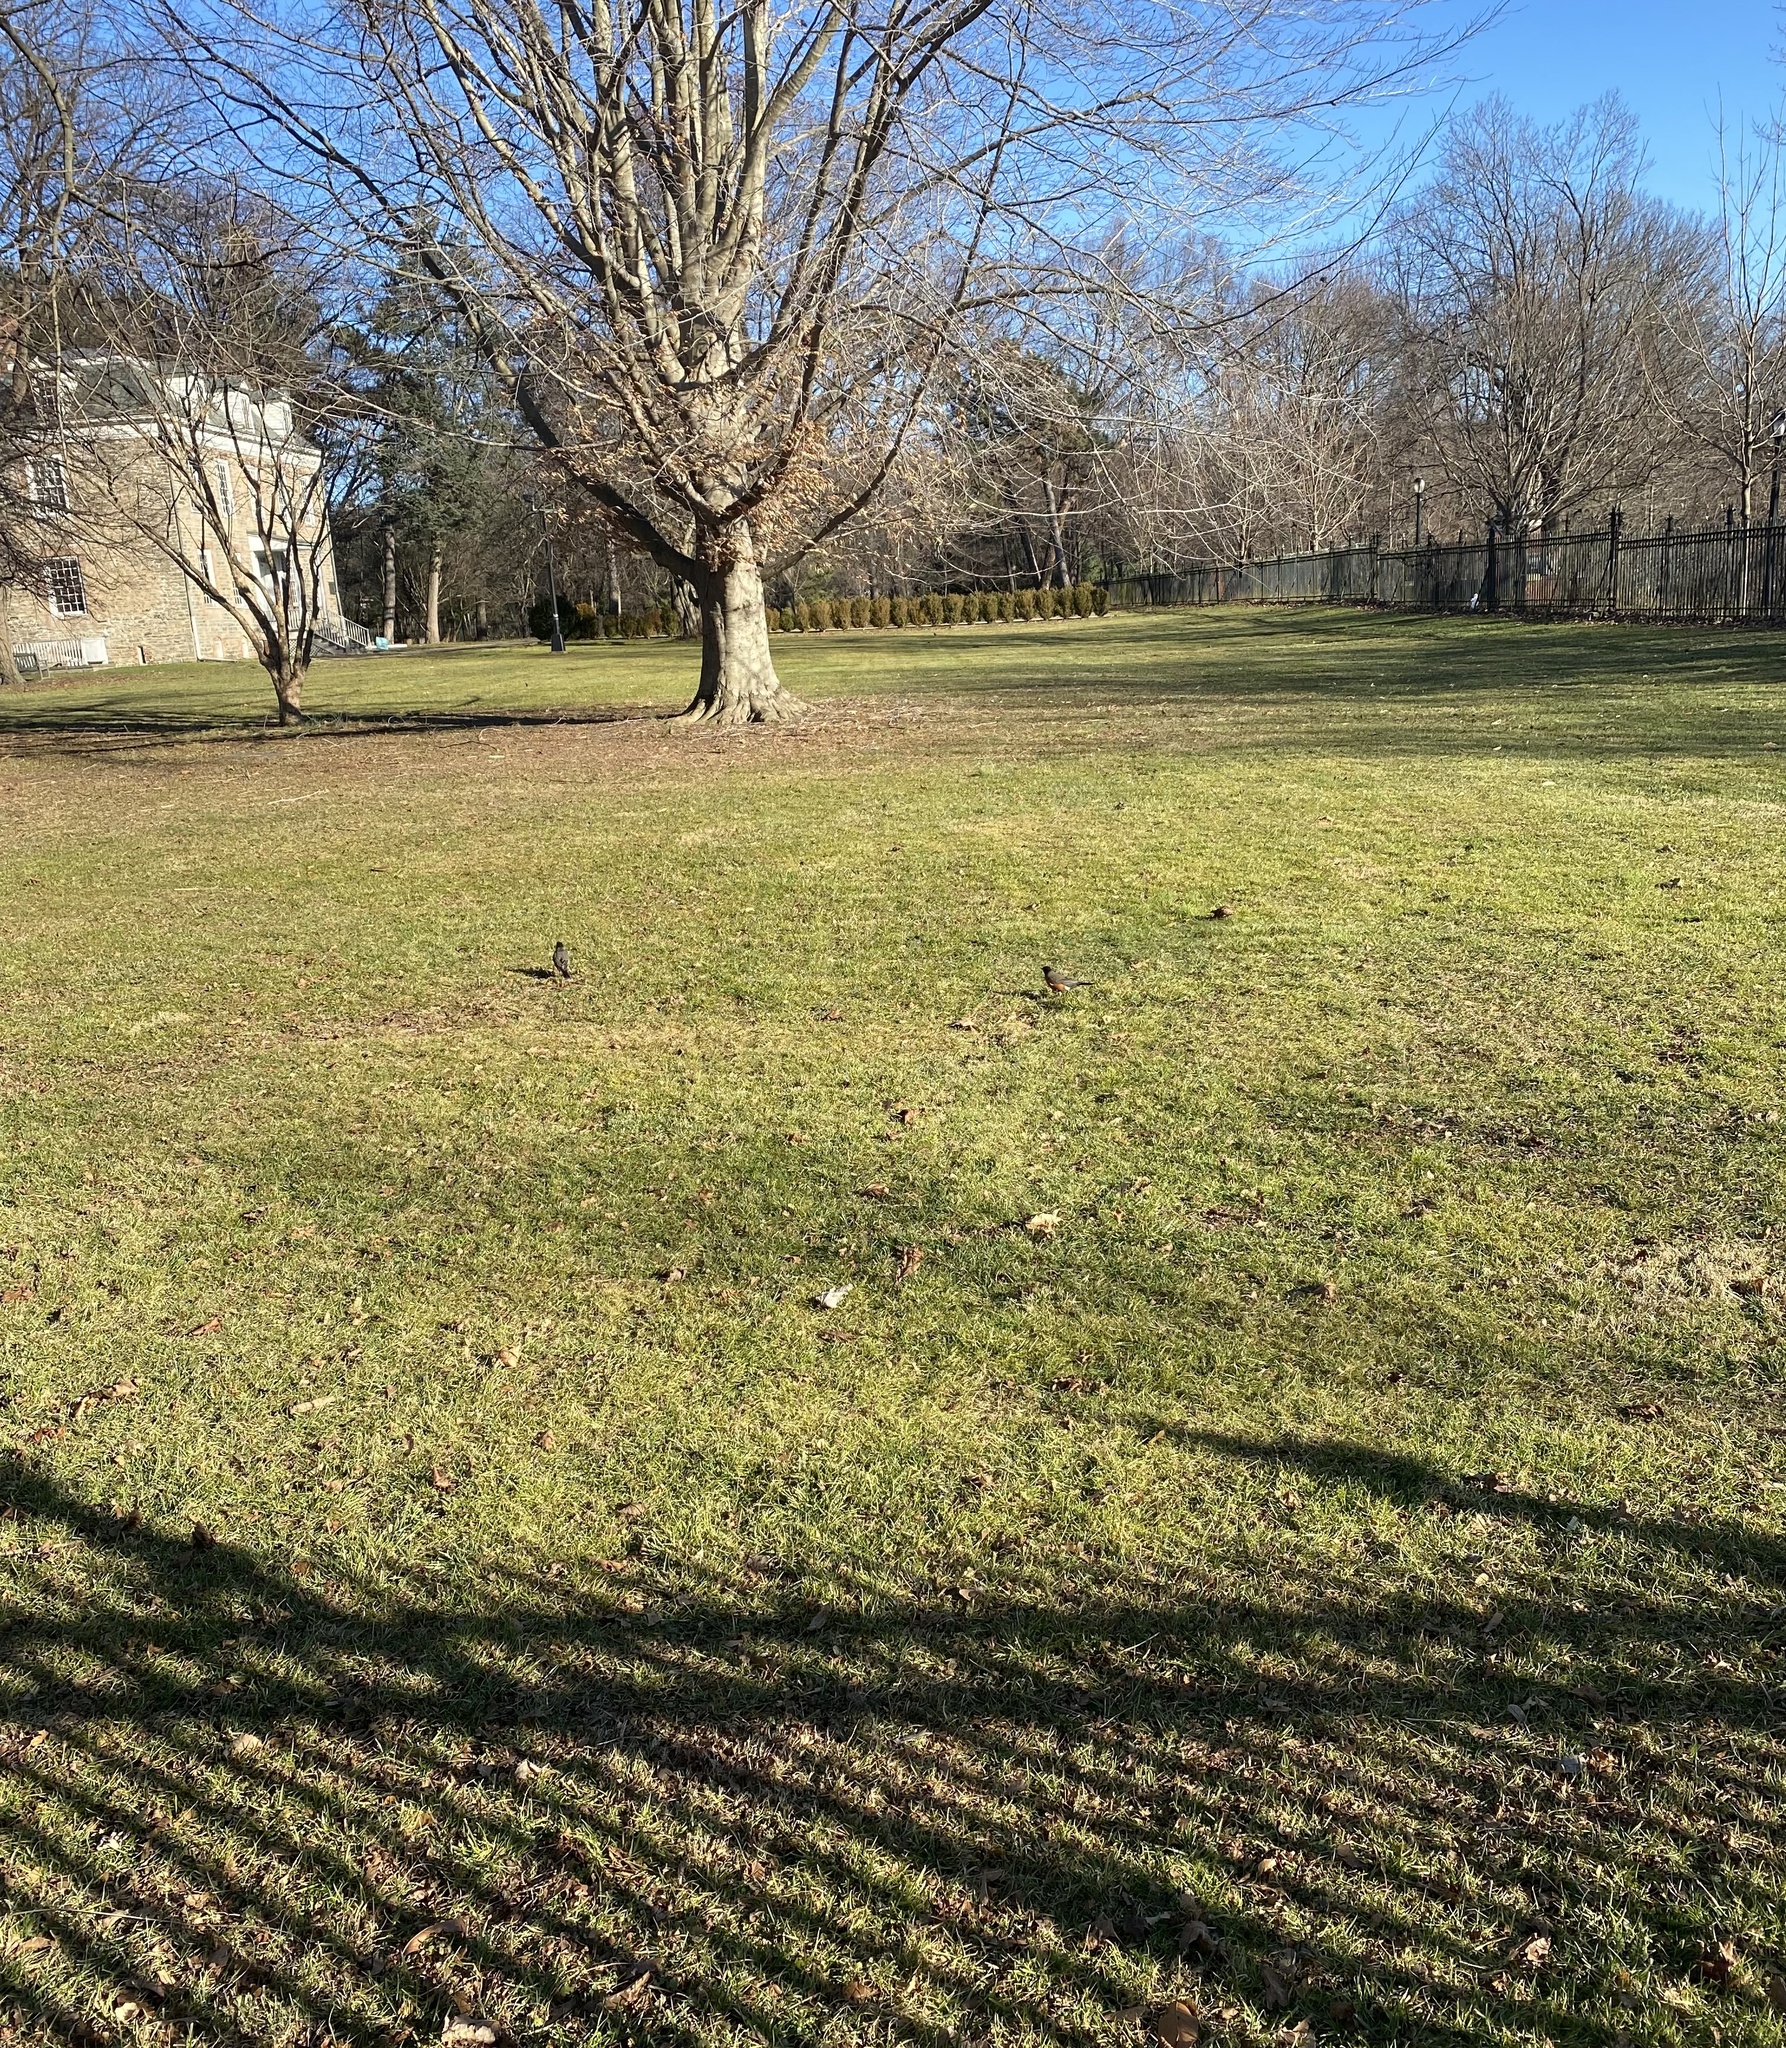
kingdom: Animalia
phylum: Chordata
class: Aves
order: Passeriformes
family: Turdidae
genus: Turdus
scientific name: Turdus migratorius
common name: American robin
